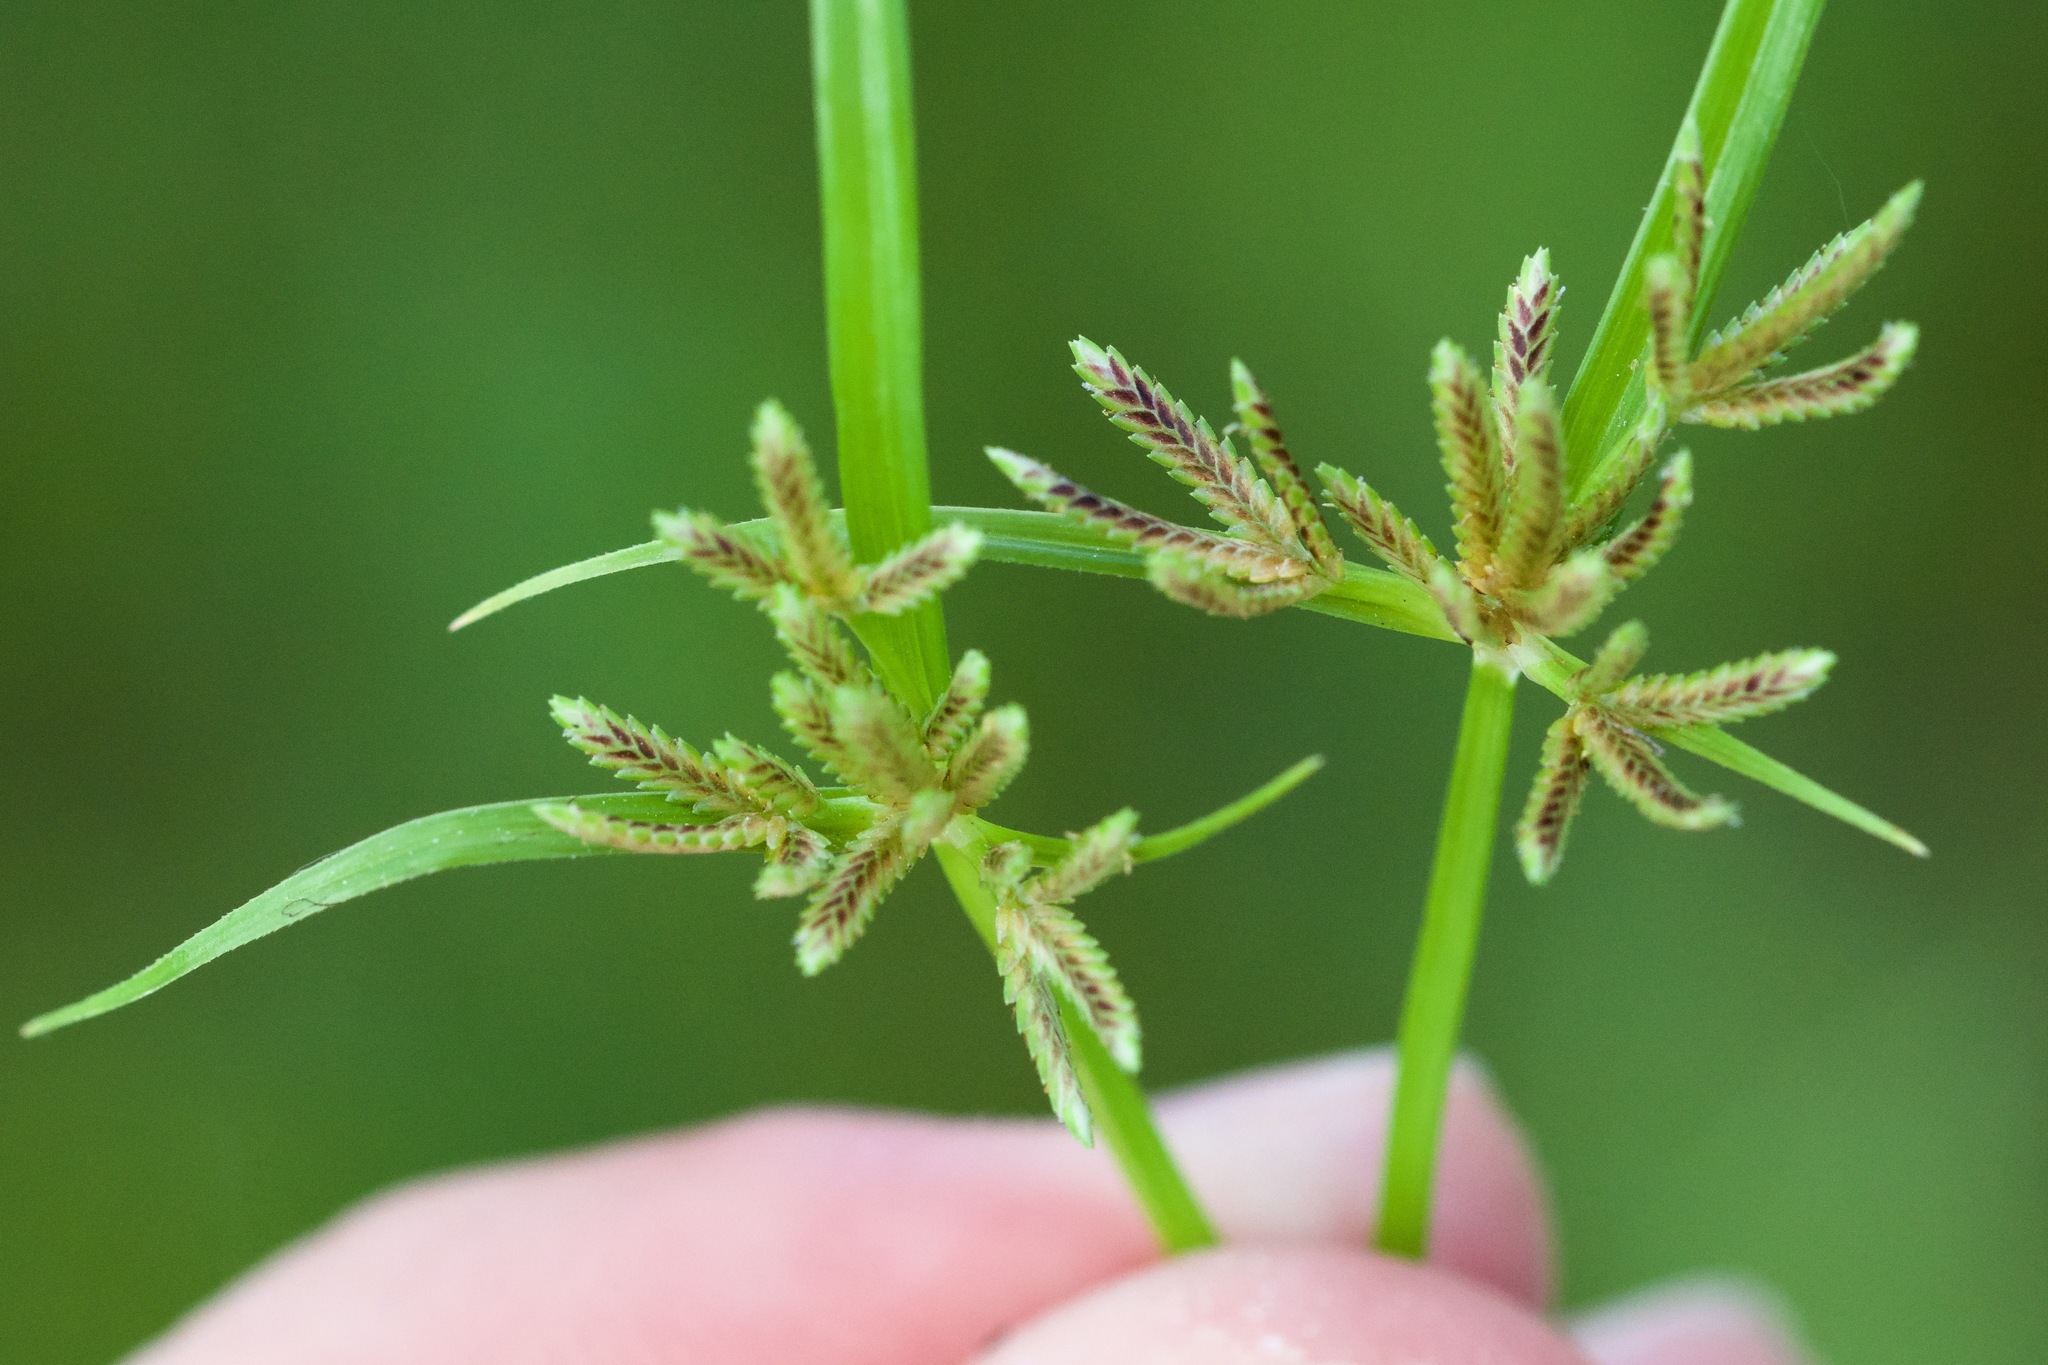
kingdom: Plantae
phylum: Tracheophyta
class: Liliopsida
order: Poales
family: Cyperaceae
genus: Cyperus
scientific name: Cyperus fuscus
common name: Brown galingale
